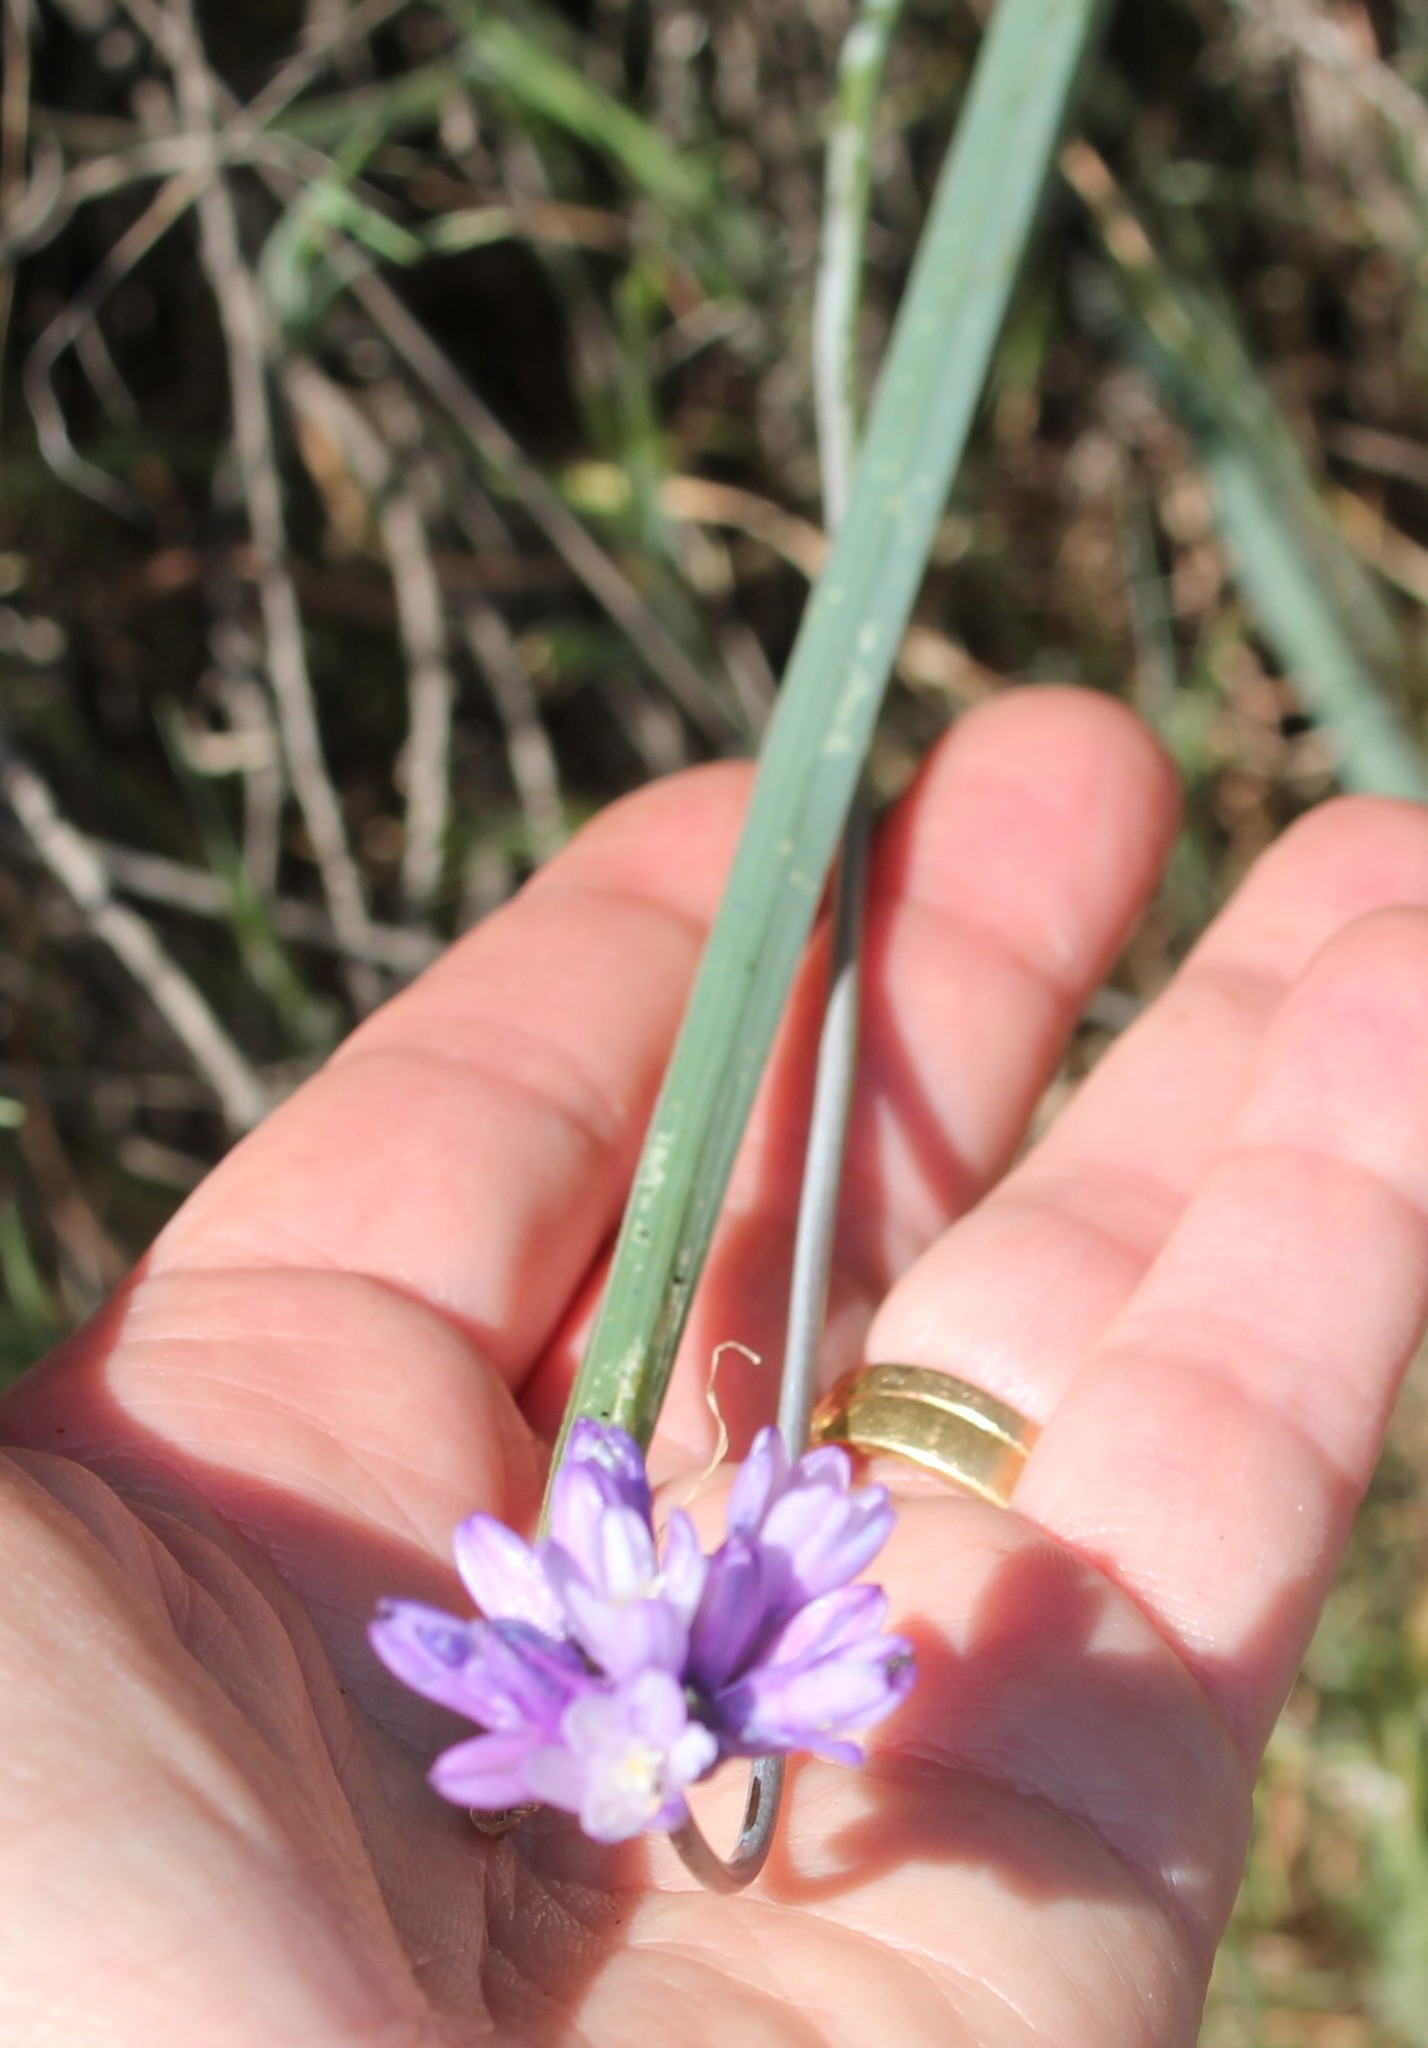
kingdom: Plantae
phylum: Tracheophyta
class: Liliopsida
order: Asparagales
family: Asparagaceae
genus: Dipterostemon
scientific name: Dipterostemon capitatus
